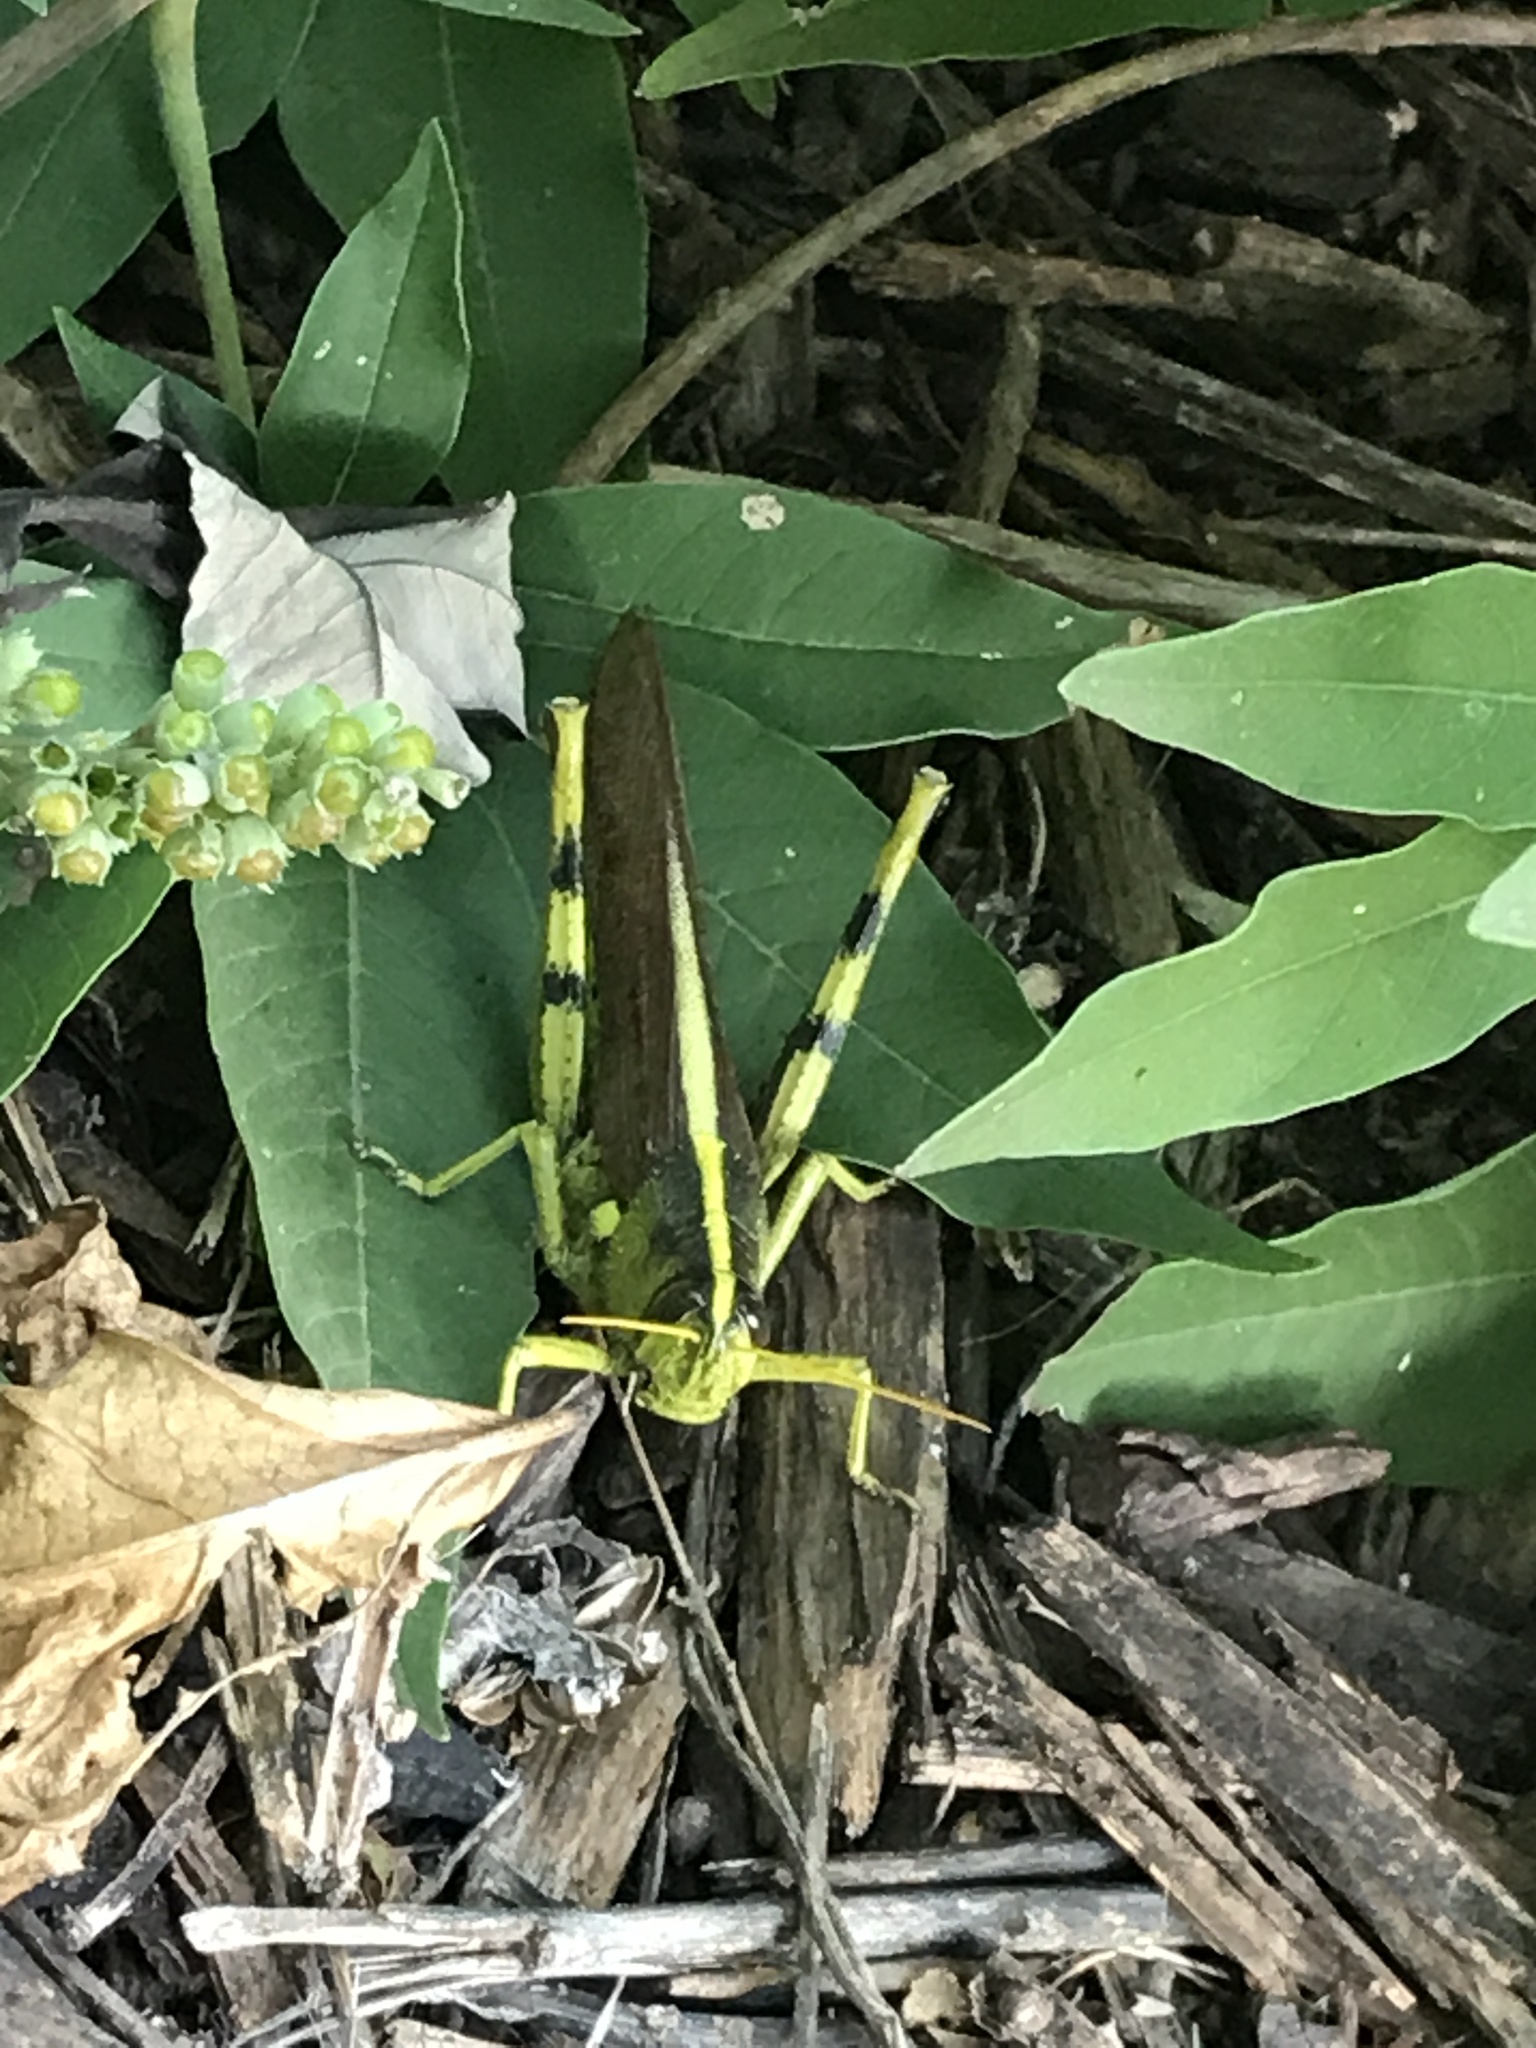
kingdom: Animalia
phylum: Arthropoda
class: Insecta
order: Orthoptera
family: Acrididae
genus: Schistocerca
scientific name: Schistocerca obscura
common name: Obscure bird grasshopper
